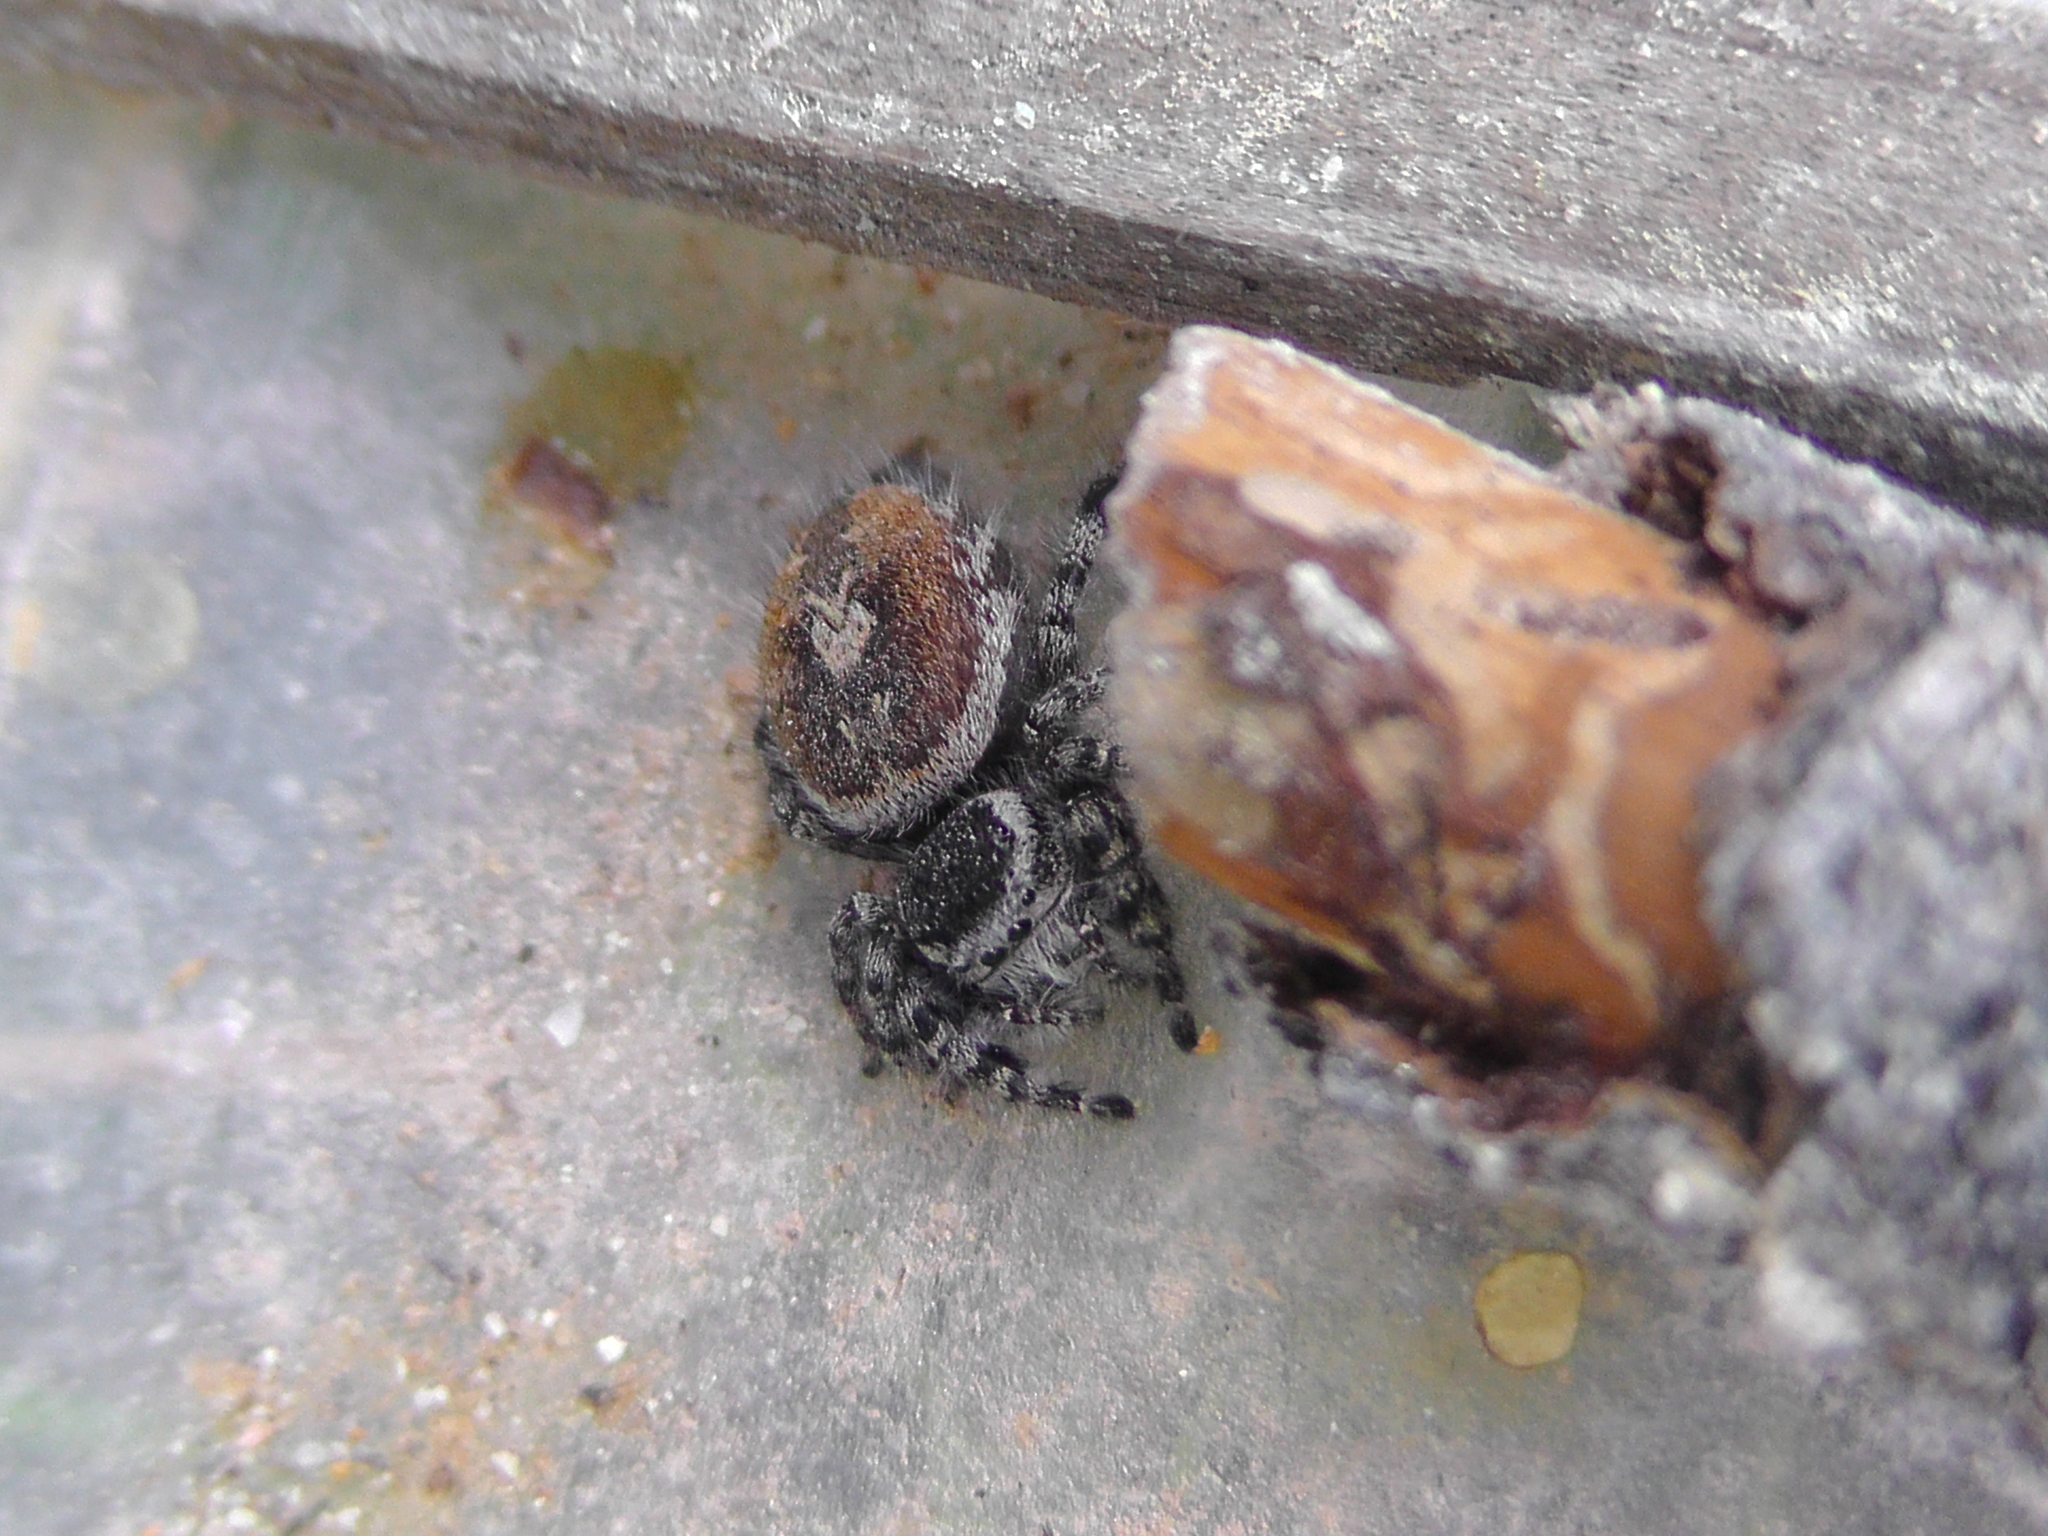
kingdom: Animalia
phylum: Arthropoda
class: Arachnida
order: Araneae
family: Salticidae
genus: Phidippus
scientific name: Phidippus tyrrelli
